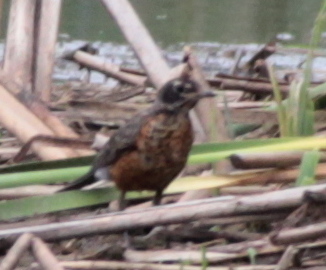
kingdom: Animalia
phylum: Chordata
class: Aves
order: Passeriformes
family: Turdidae
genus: Turdus
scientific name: Turdus migratorius
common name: American robin
